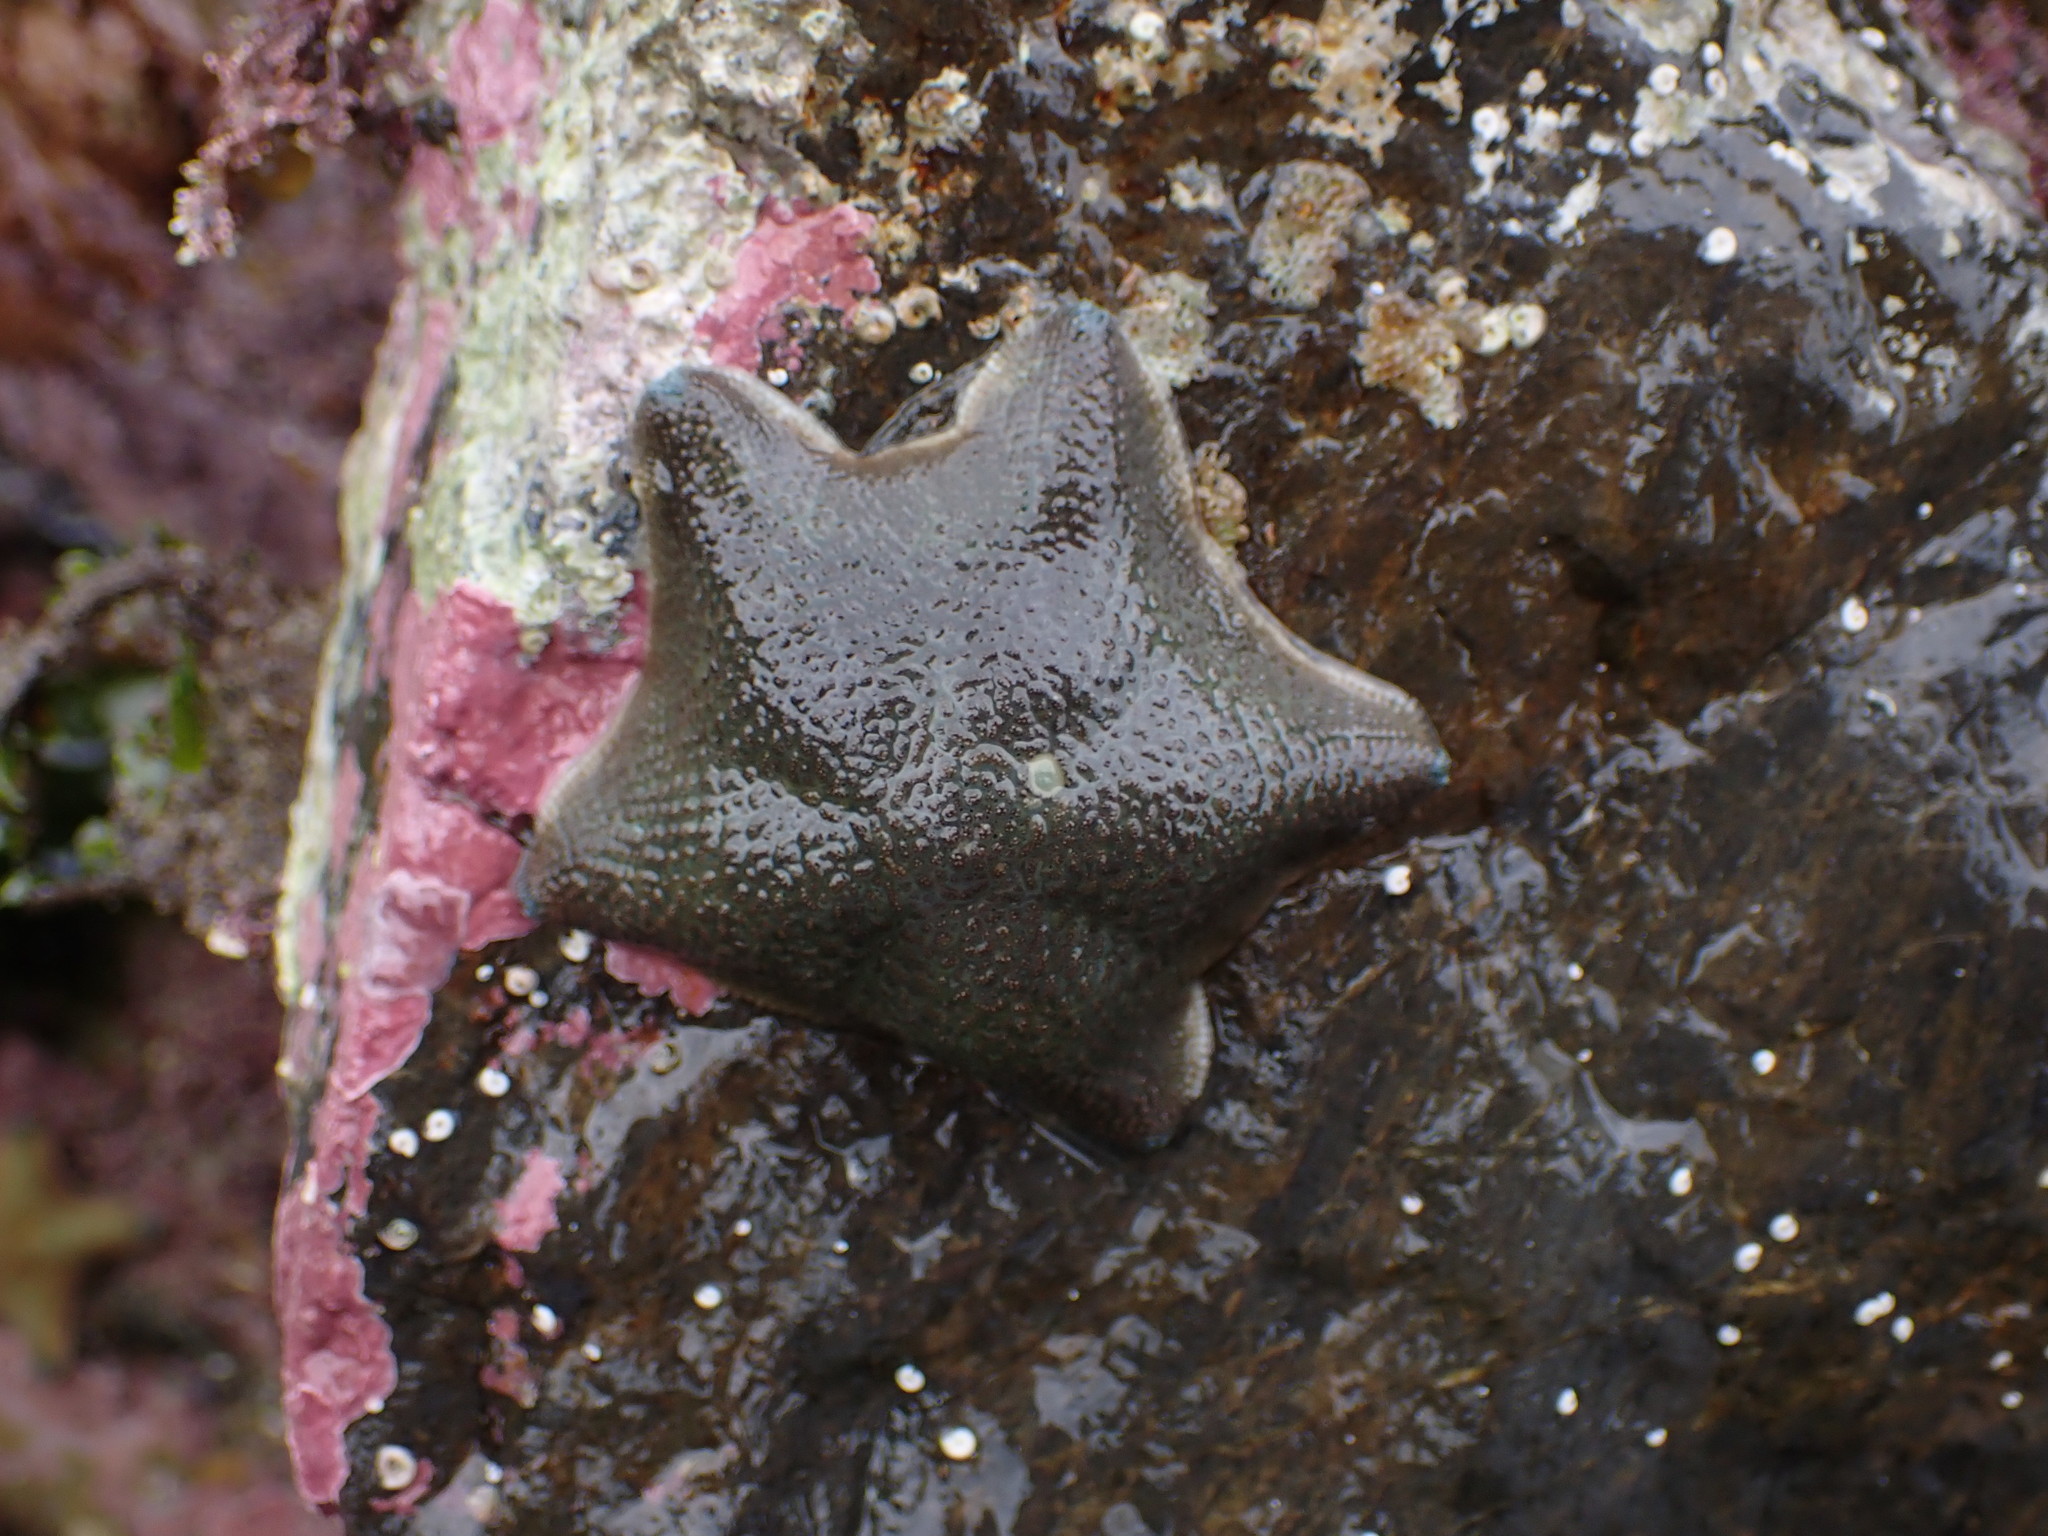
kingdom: Animalia
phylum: Echinodermata
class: Asteroidea
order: Valvatida
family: Asterinidae
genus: Patiriella
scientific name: Patiriella regularis
